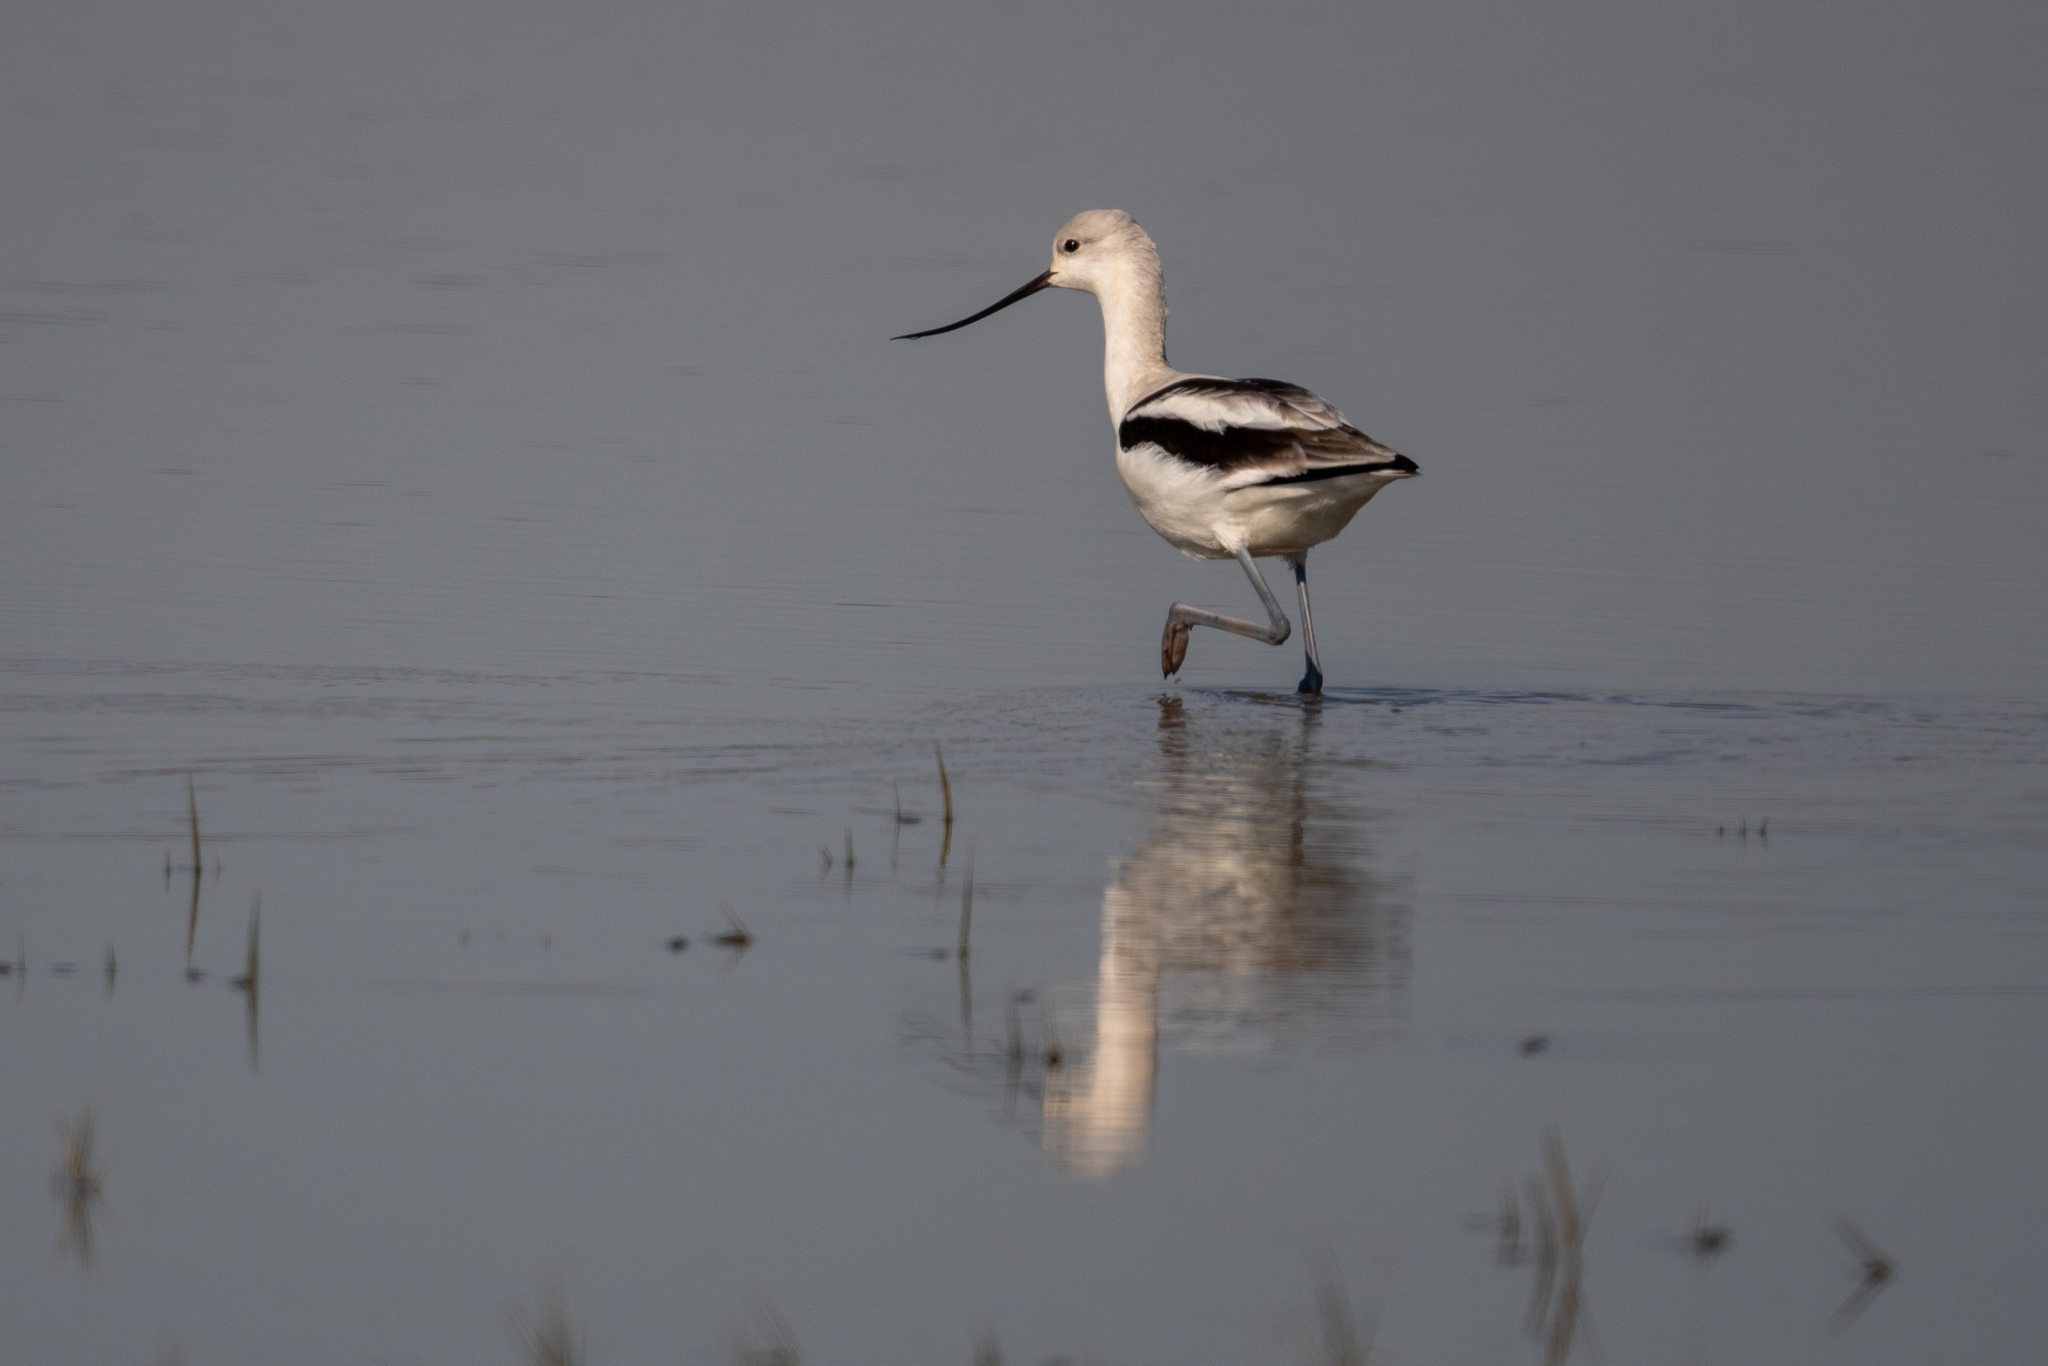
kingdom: Animalia
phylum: Chordata
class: Aves
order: Charadriiformes
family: Recurvirostridae
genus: Recurvirostra
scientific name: Recurvirostra americana
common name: American avocet
